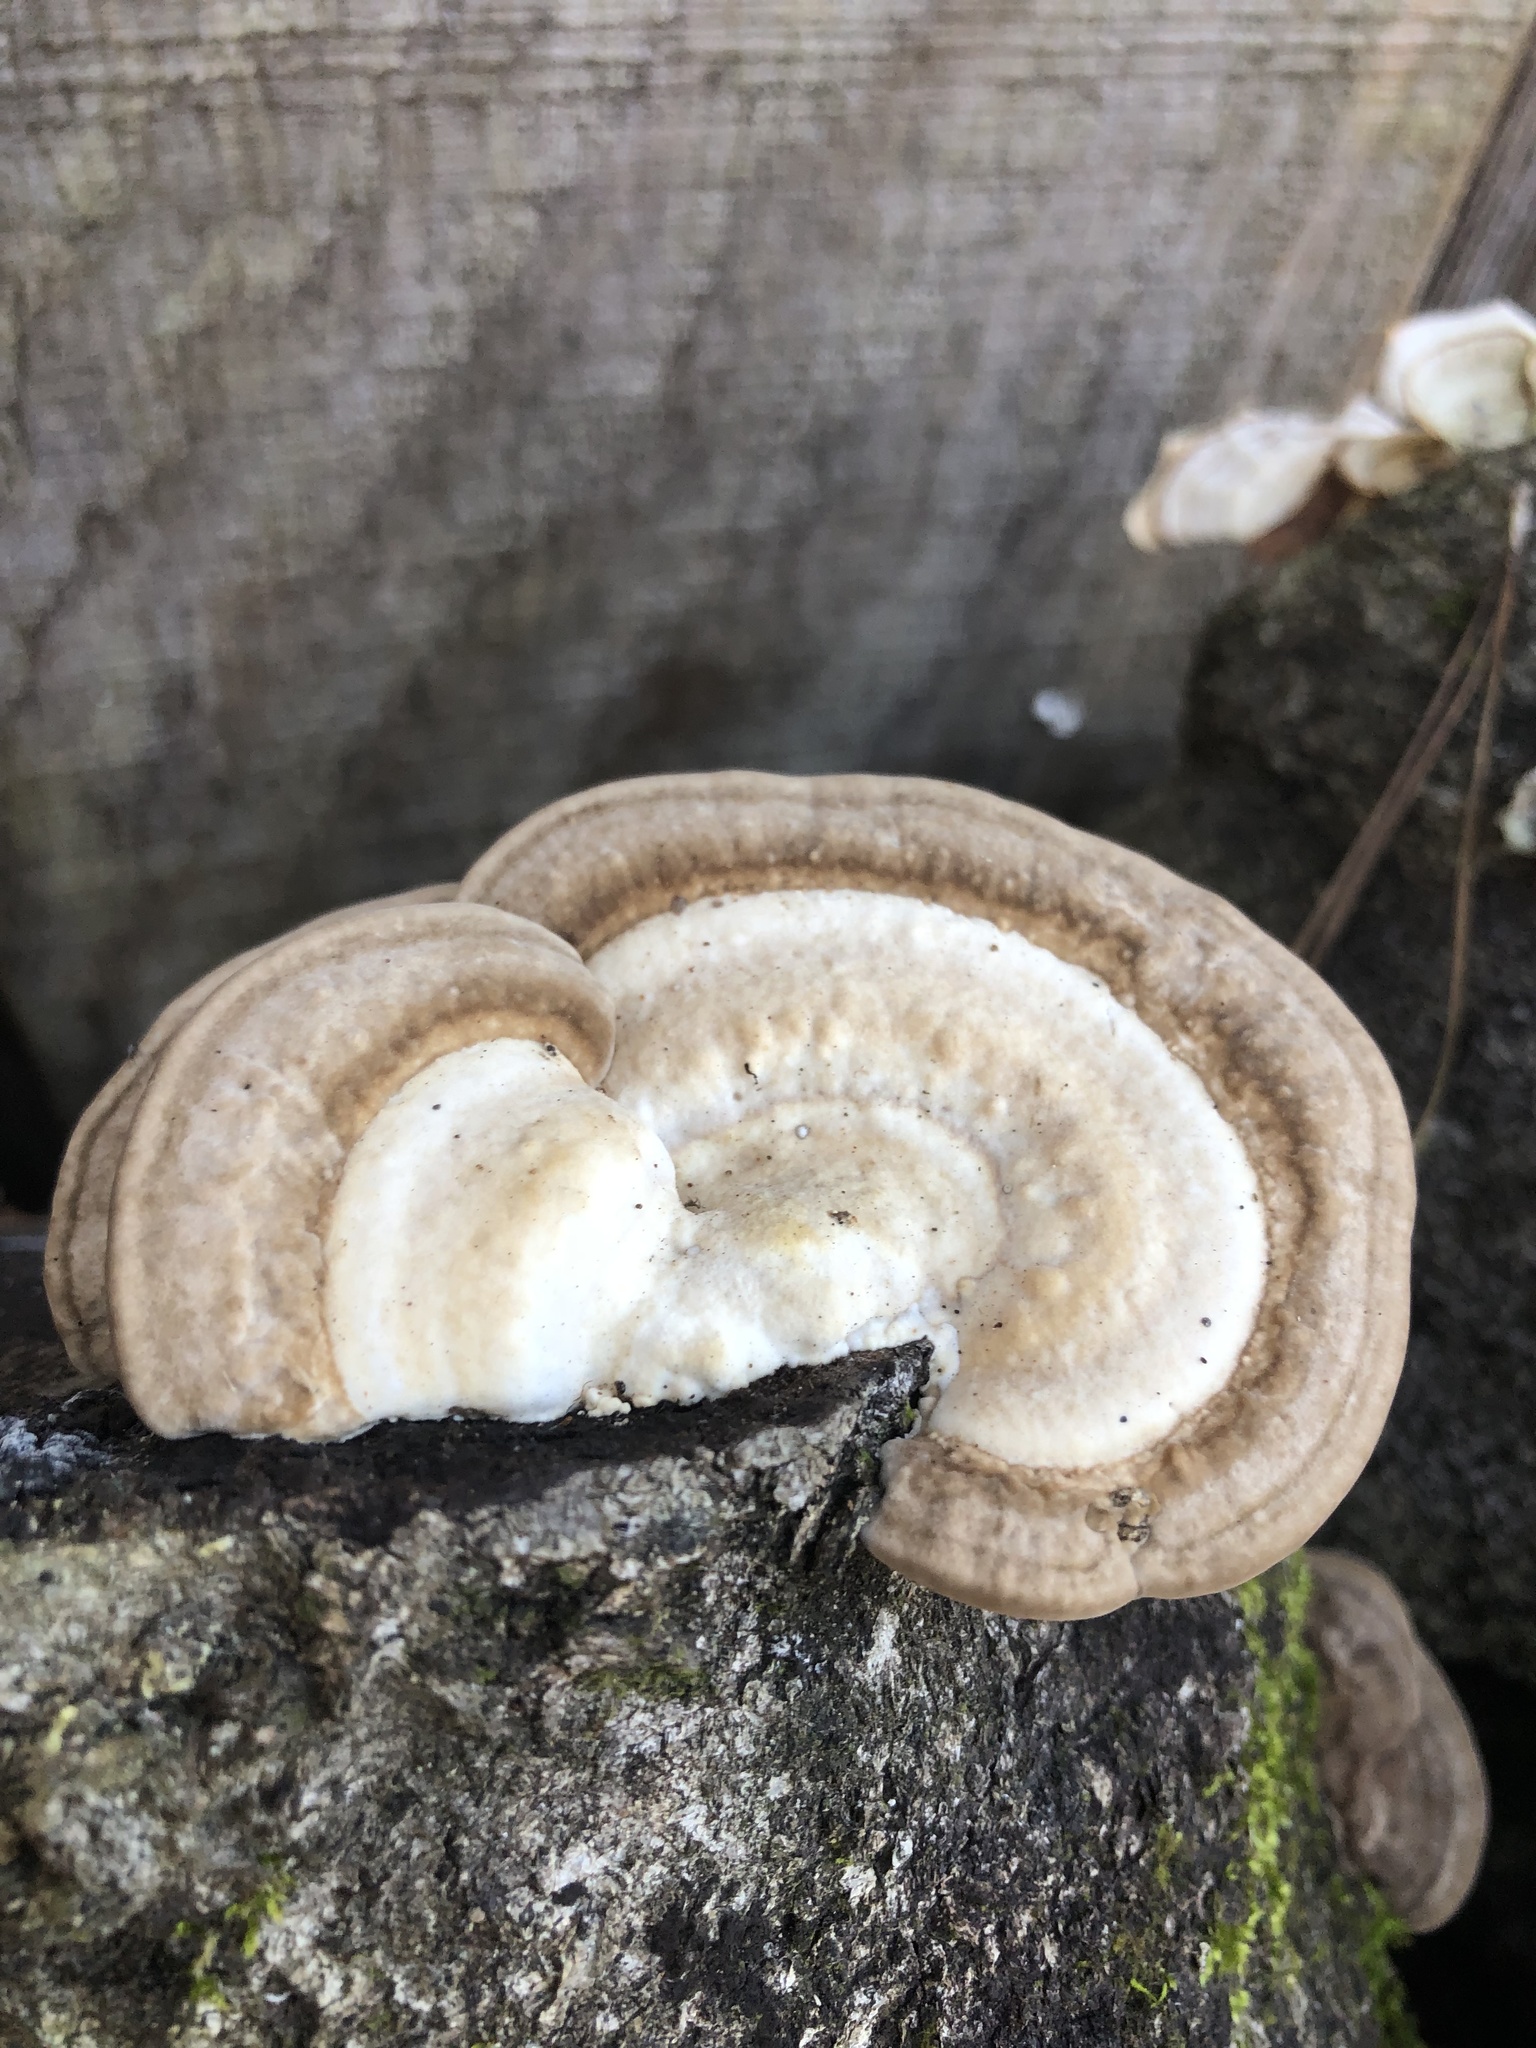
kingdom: Fungi
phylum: Basidiomycota
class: Agaricomycetes
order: Polyporales
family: Polyporaceae
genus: Trametes
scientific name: Trametes lactinea
